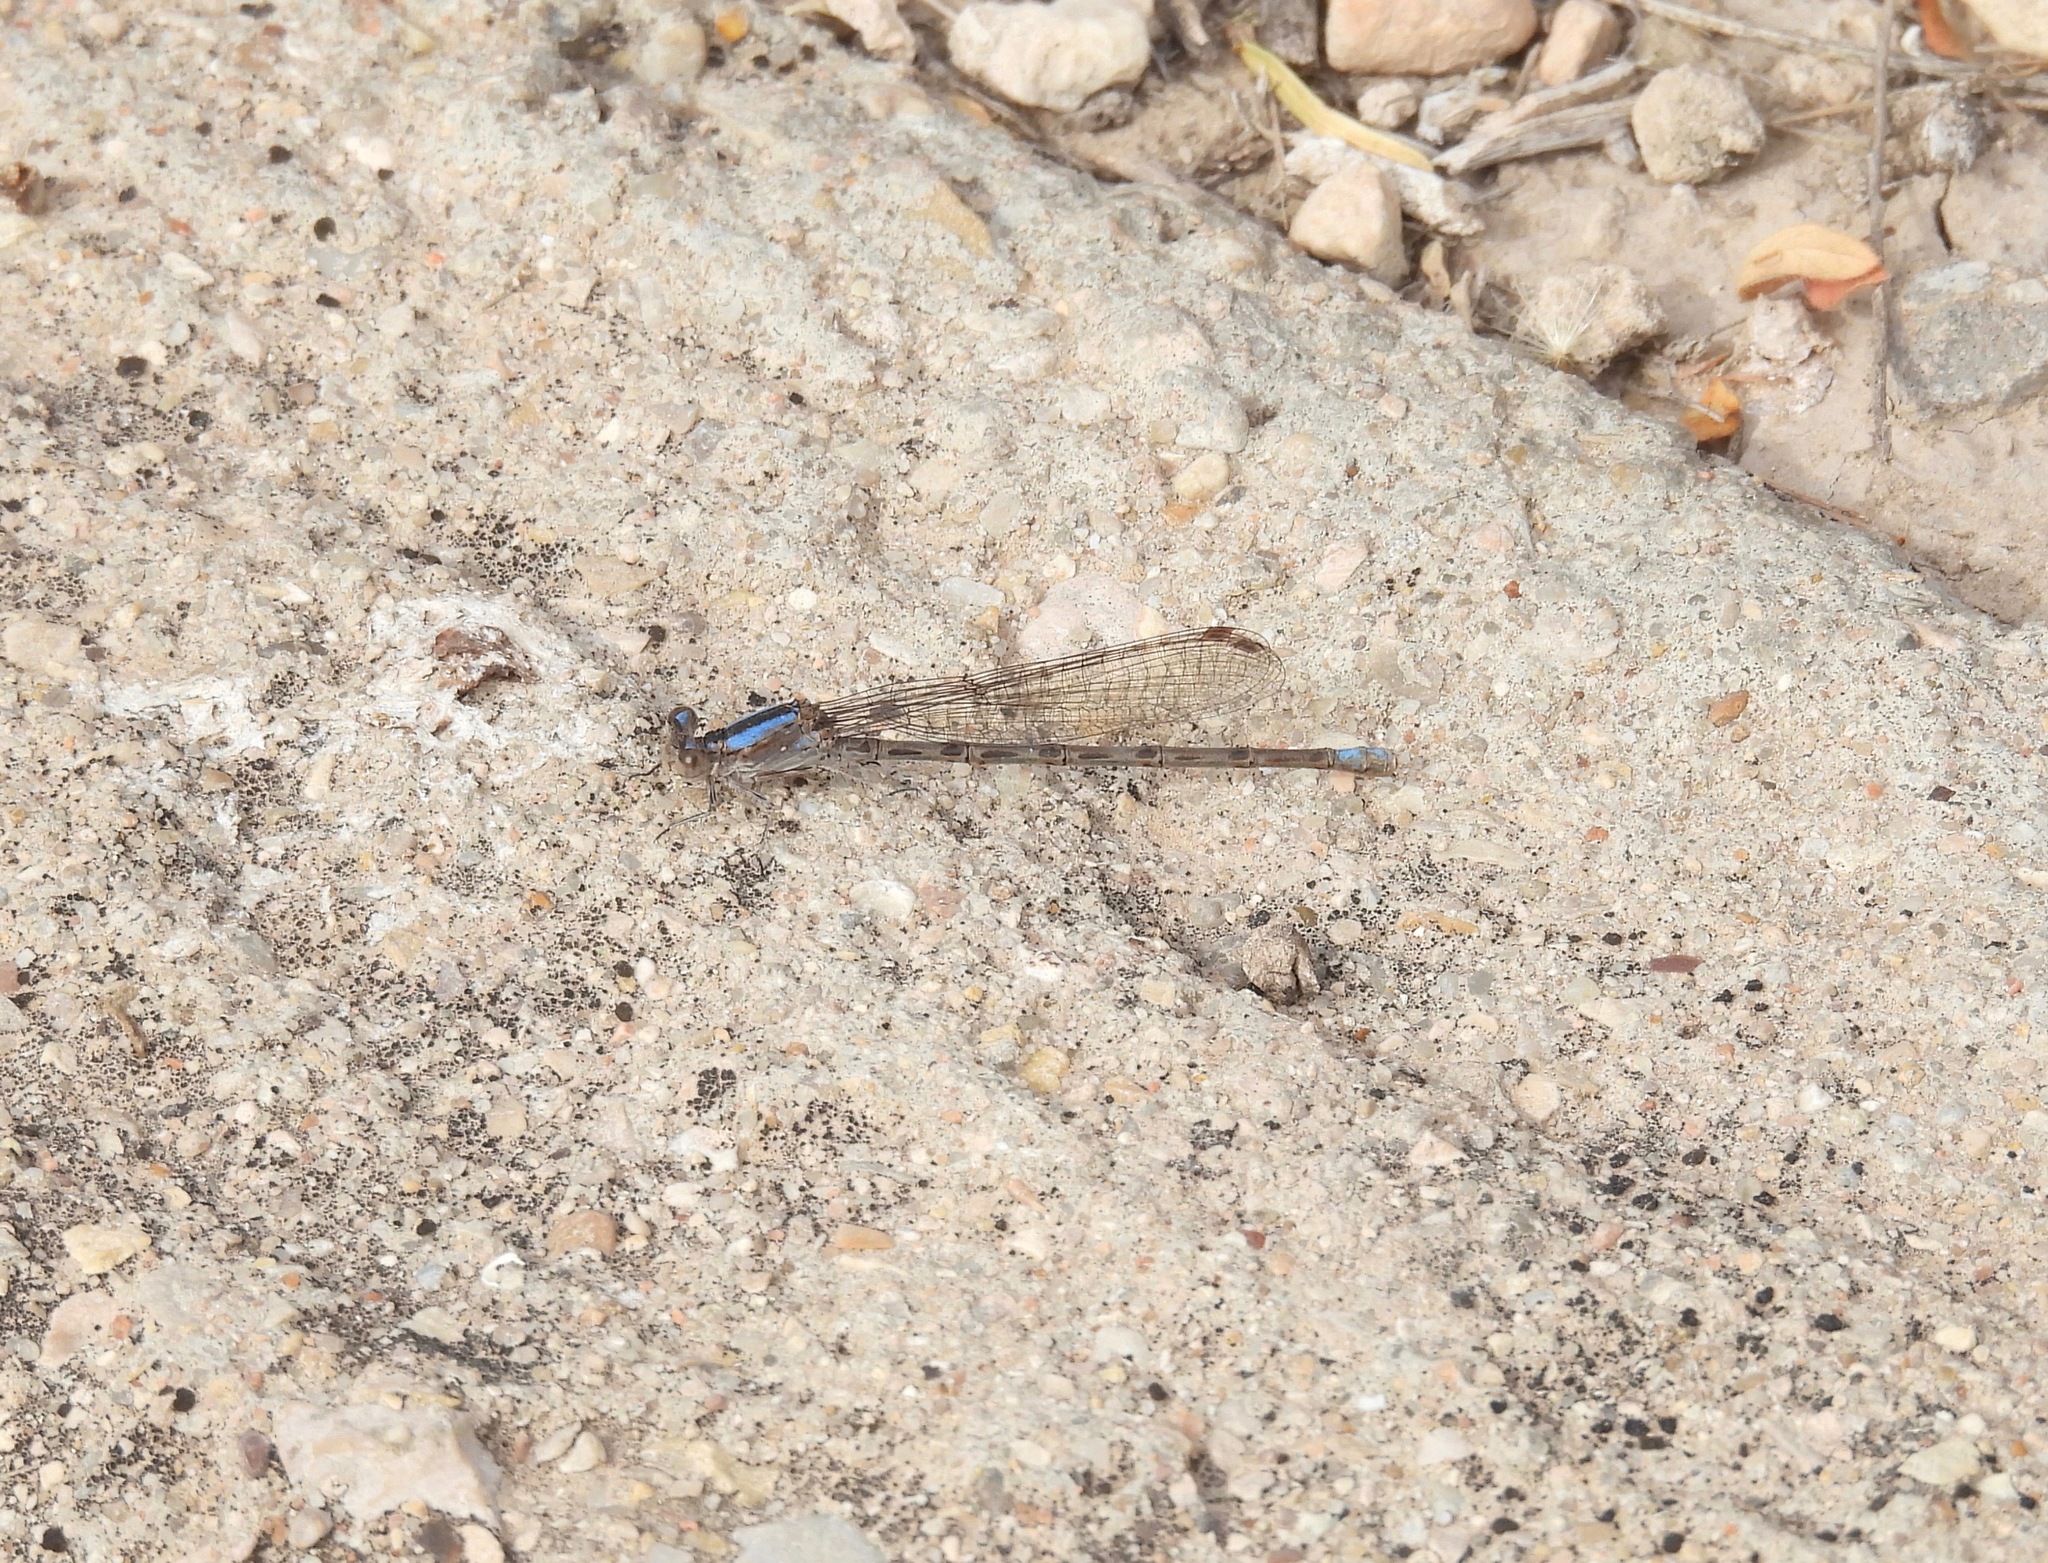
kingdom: Animalia
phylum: Arthropoda
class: Insecta
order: Odonata
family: Coenagrionidae
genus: Argia
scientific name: Argia immunda
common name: Kiowa dancer
